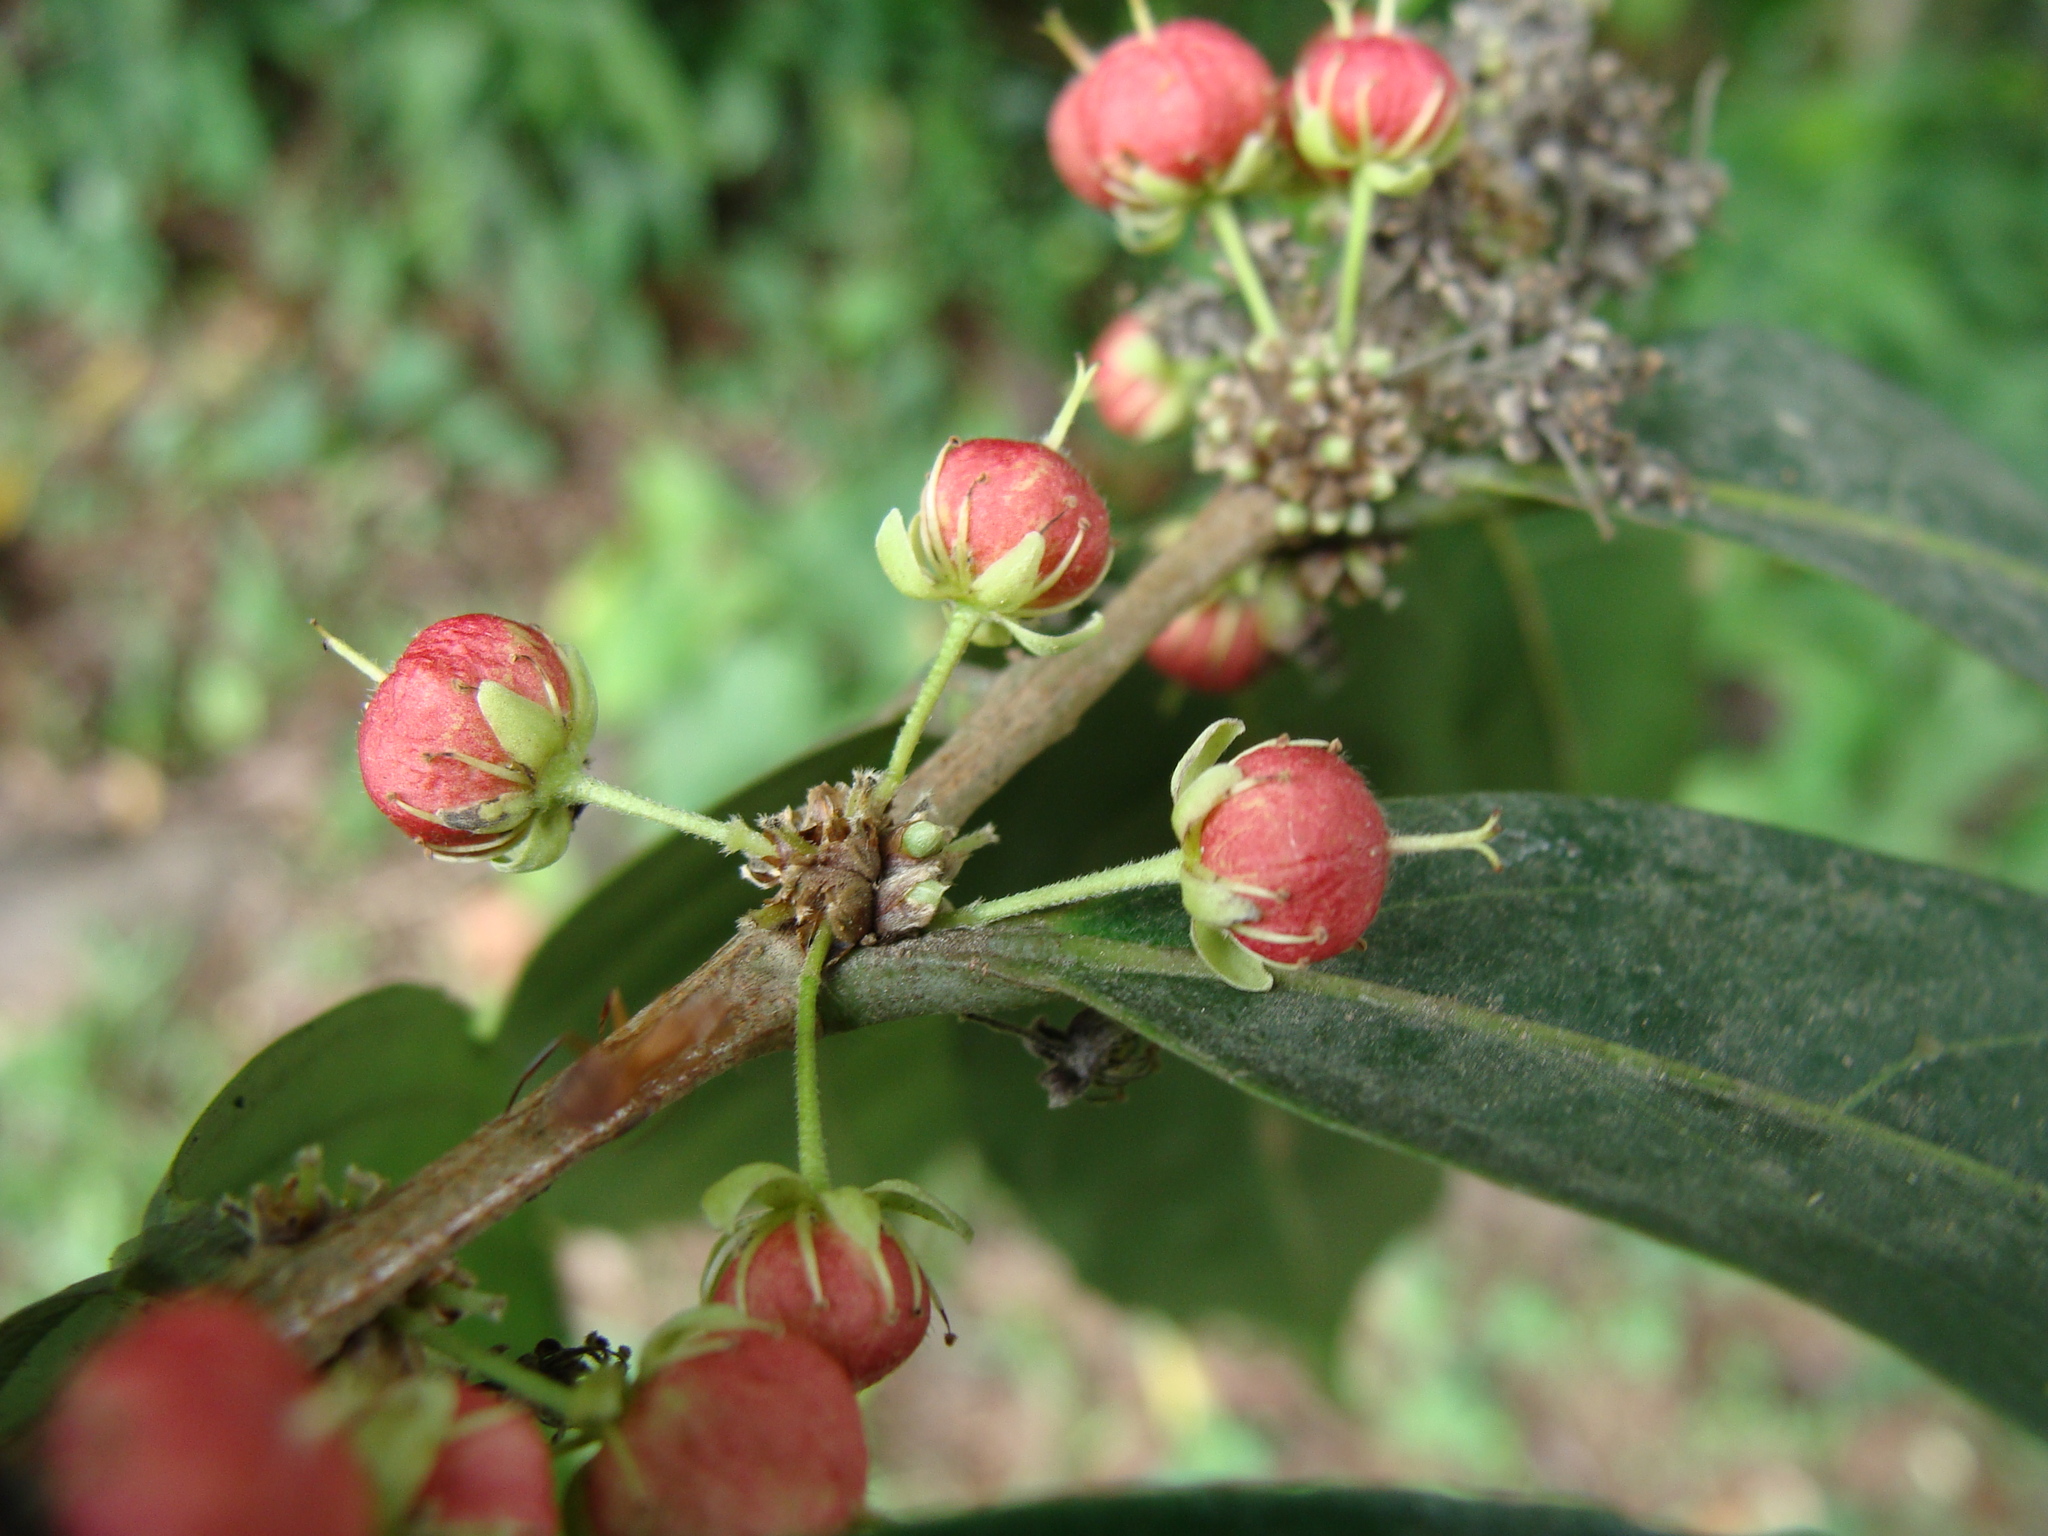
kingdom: Plantae
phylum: Tracheophyta
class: Magnoliopsida
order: Malpighiales
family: Salicaceae
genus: Piparea
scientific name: Piparea dentata
